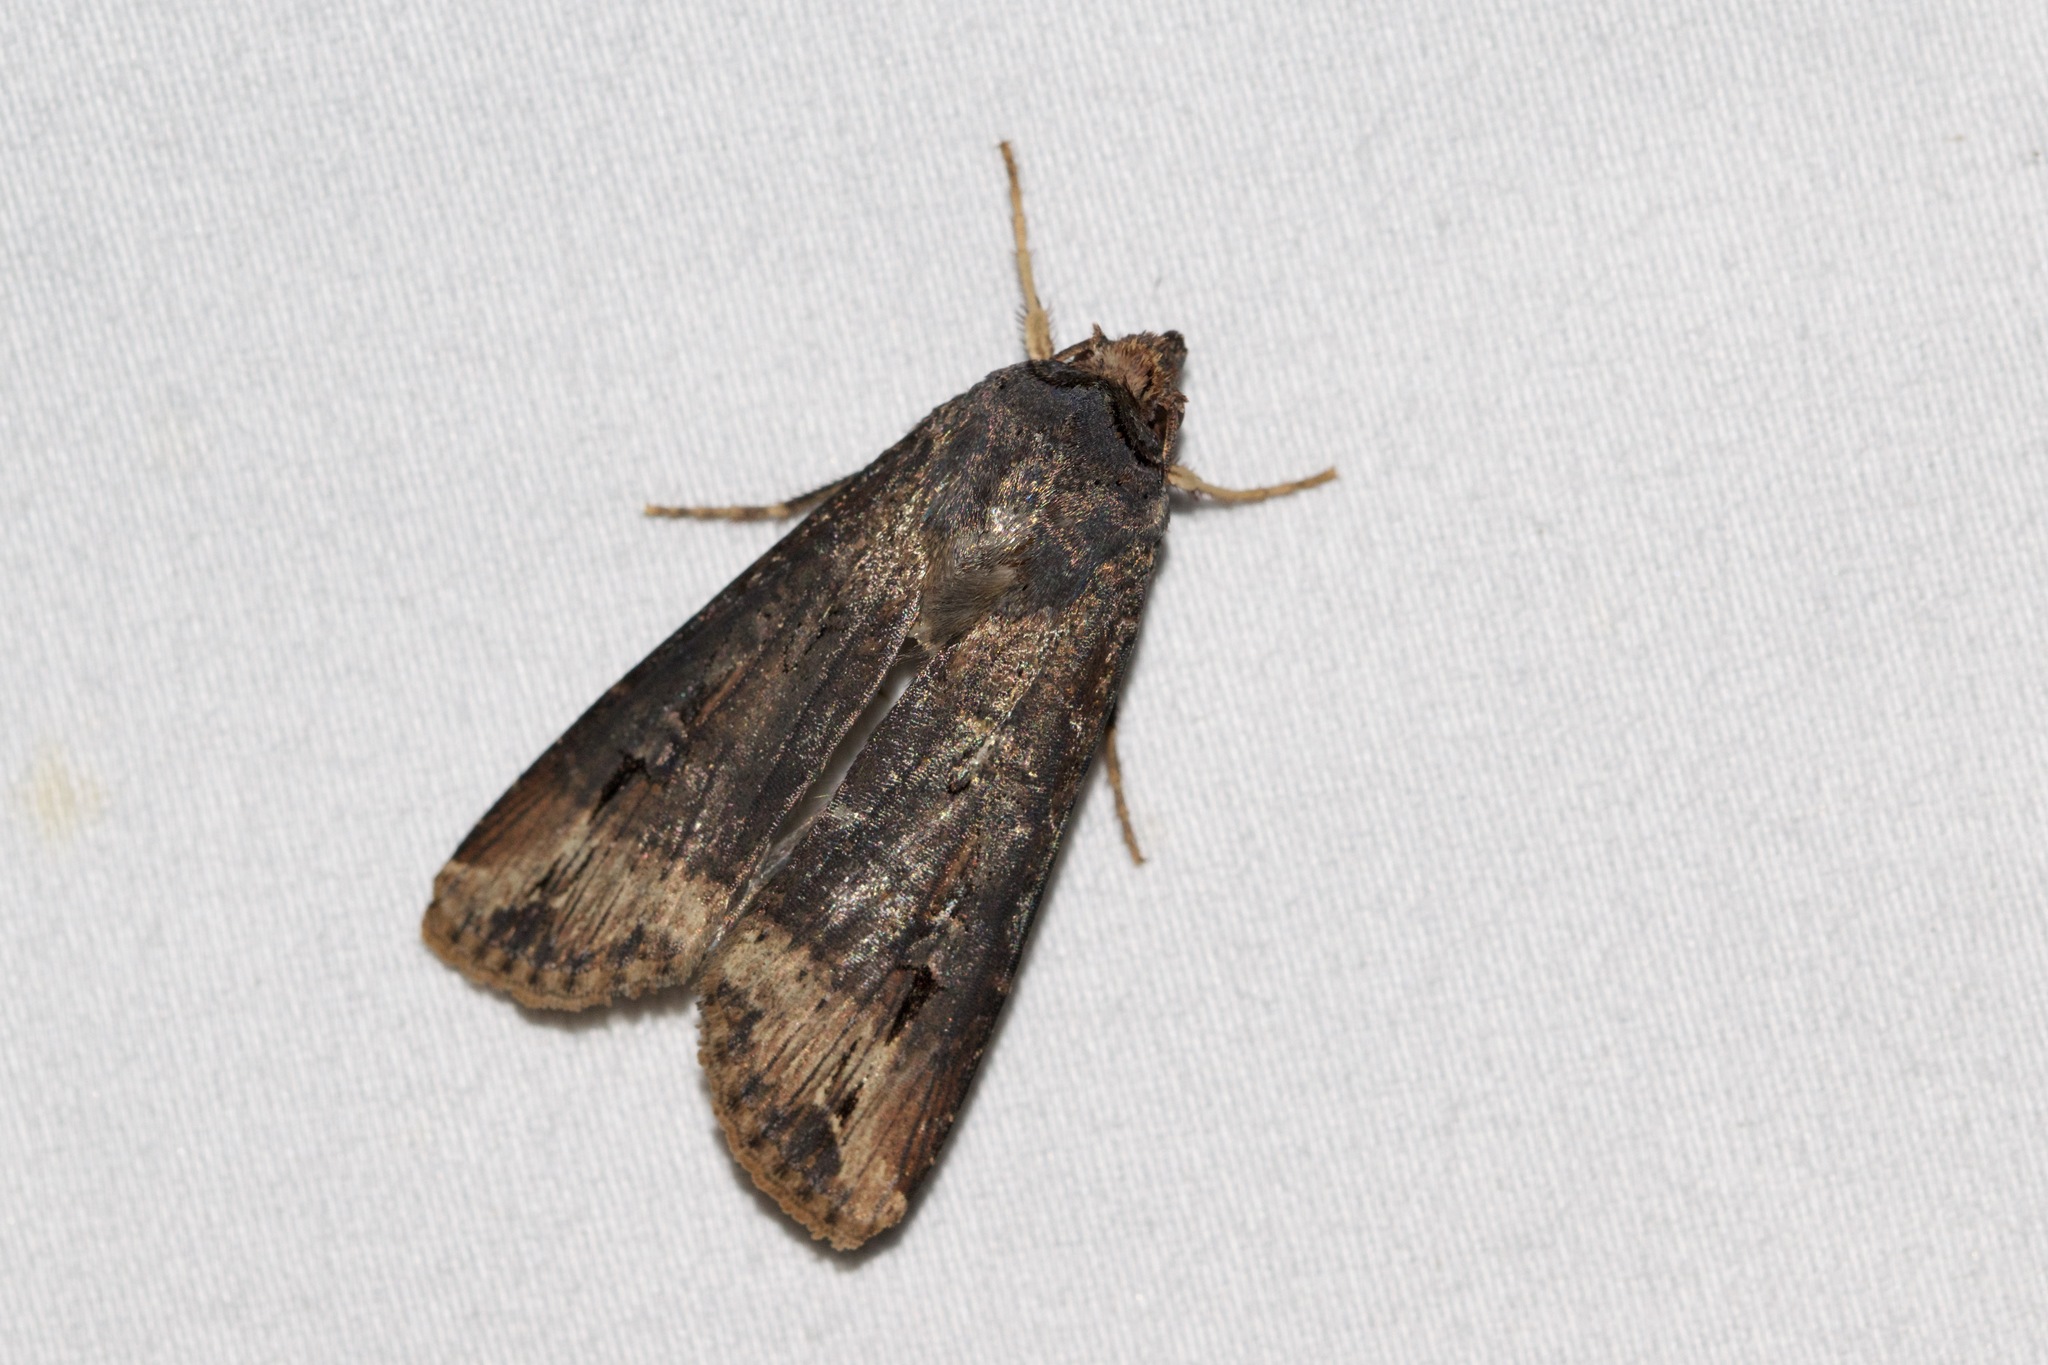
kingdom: Animalia
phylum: Arthropoda
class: Insecta
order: Lepidoptera
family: Noctuidae
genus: Agrotis
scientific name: Agrotis ipsilon
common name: Dark sword-grass
